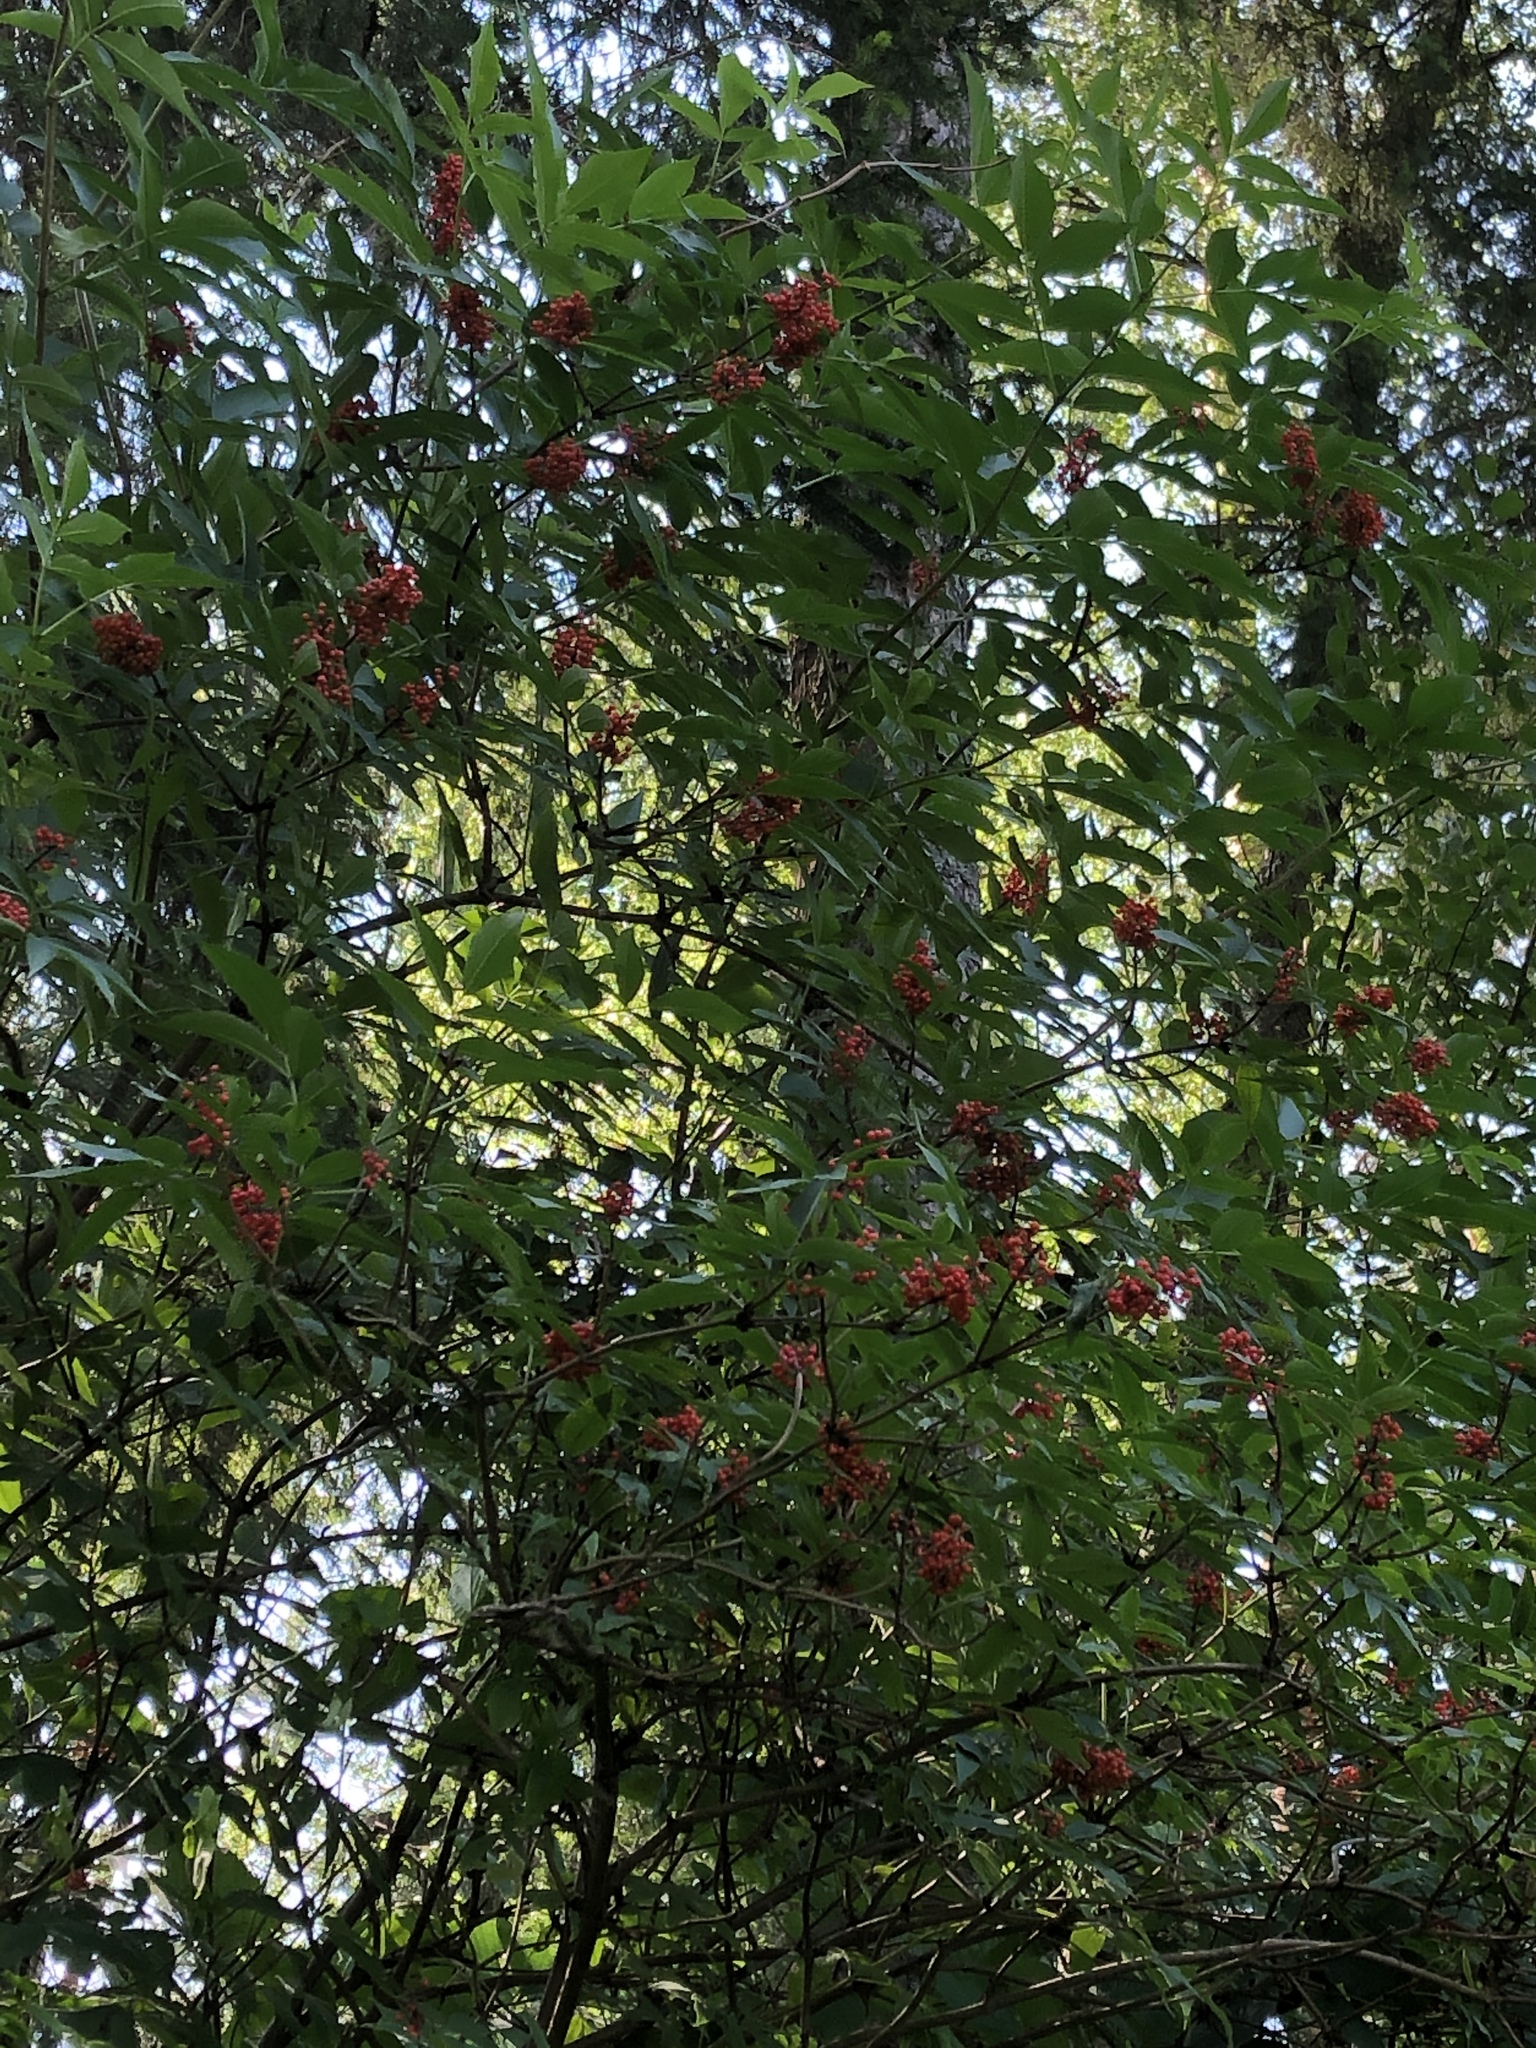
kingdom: Plantae
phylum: Tracheophyta
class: Magnoliopsida
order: Dipsacales
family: Viburnaceae
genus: Sambucus
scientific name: Sambucus racemosa
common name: Red-berried elder
